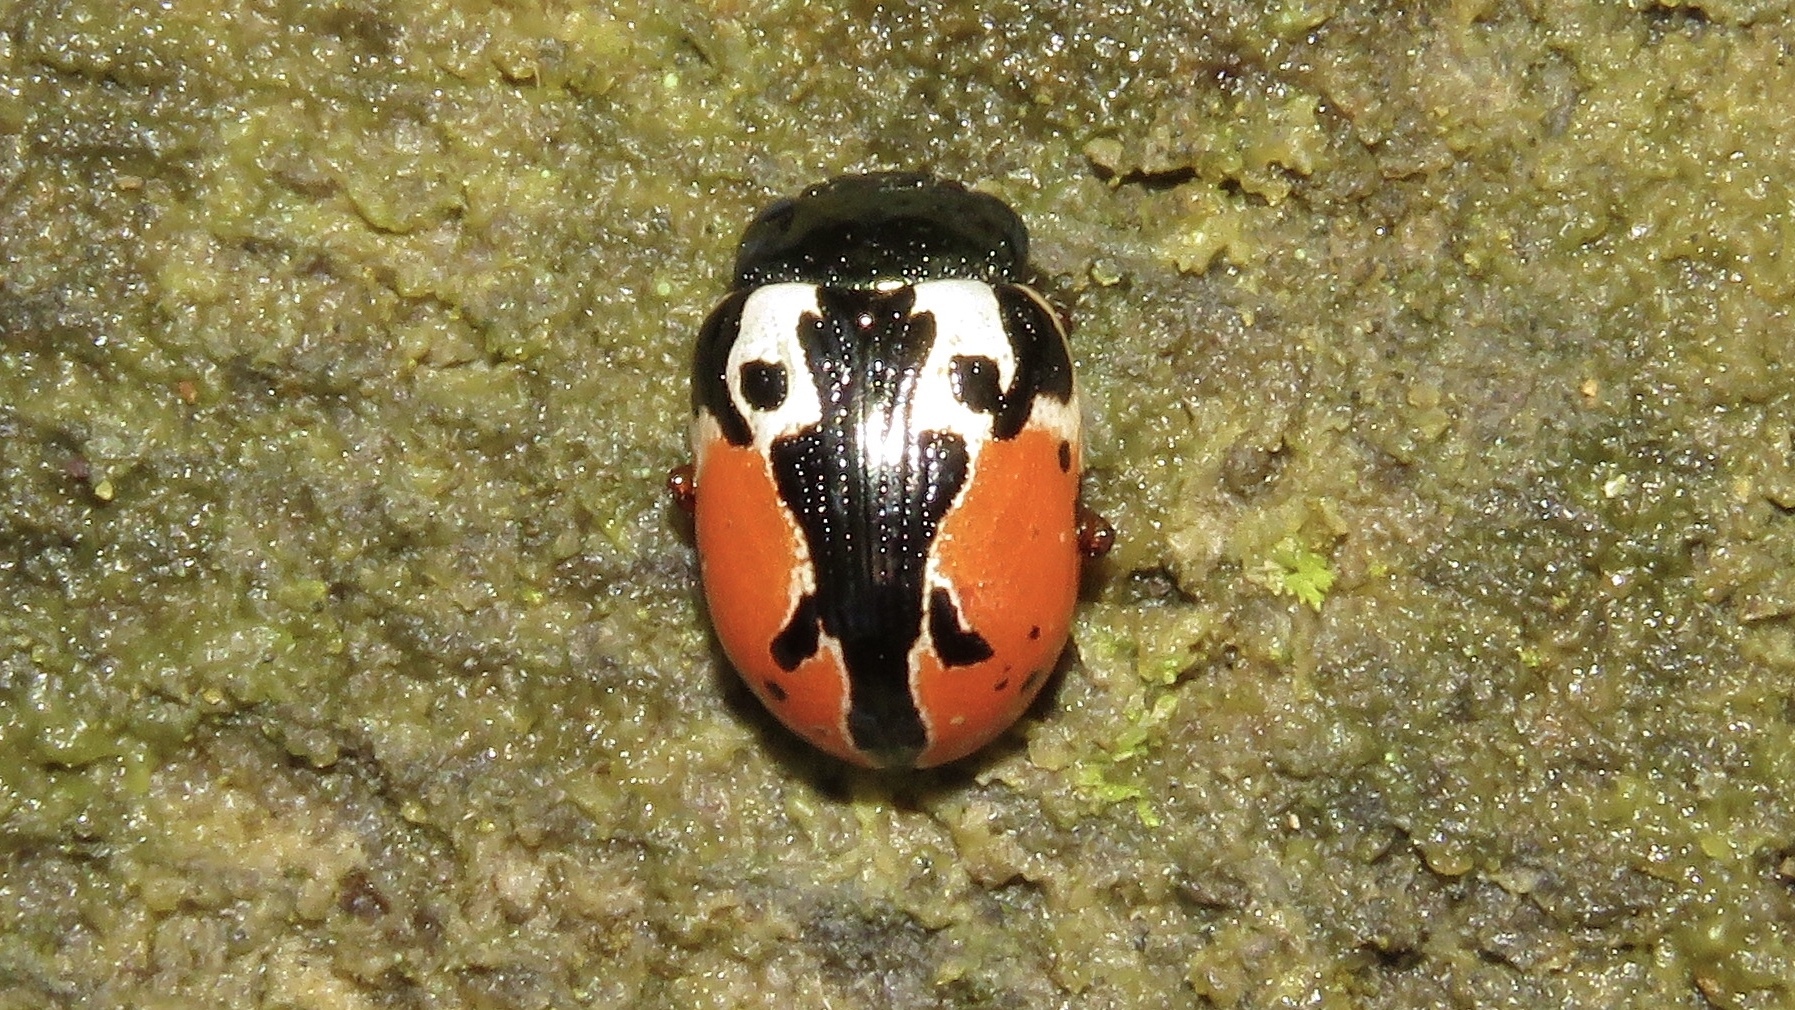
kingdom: Animalia
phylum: Arthropoda
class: Insecta
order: Coleoptera
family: Chrysomelidae
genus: Calligrapha
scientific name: Calligrapha rowena
